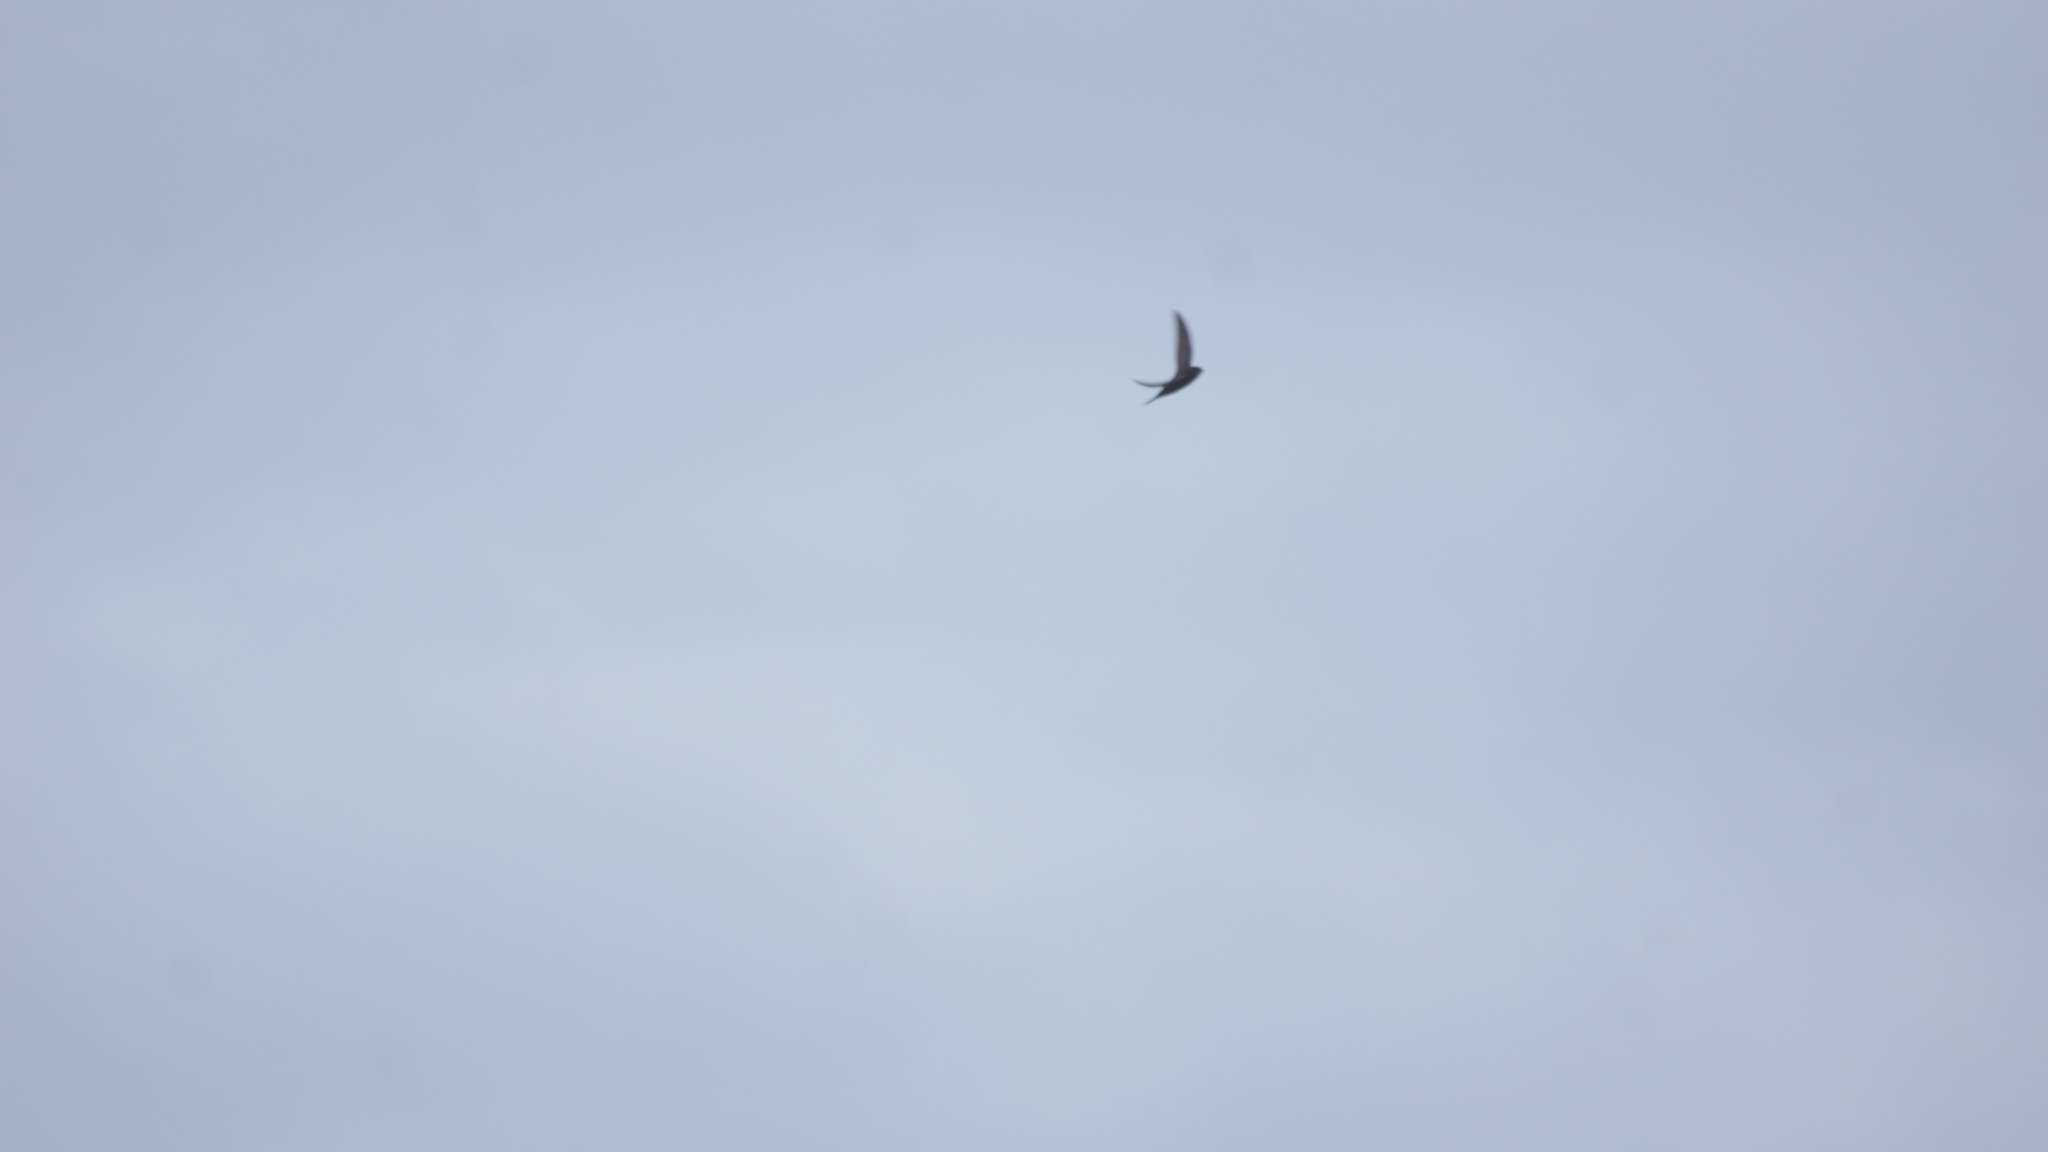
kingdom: Animalia
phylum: Chordata
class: Aves
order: Apodiformes
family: Apodidae
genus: Apus
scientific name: Apus apus
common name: Common swift
